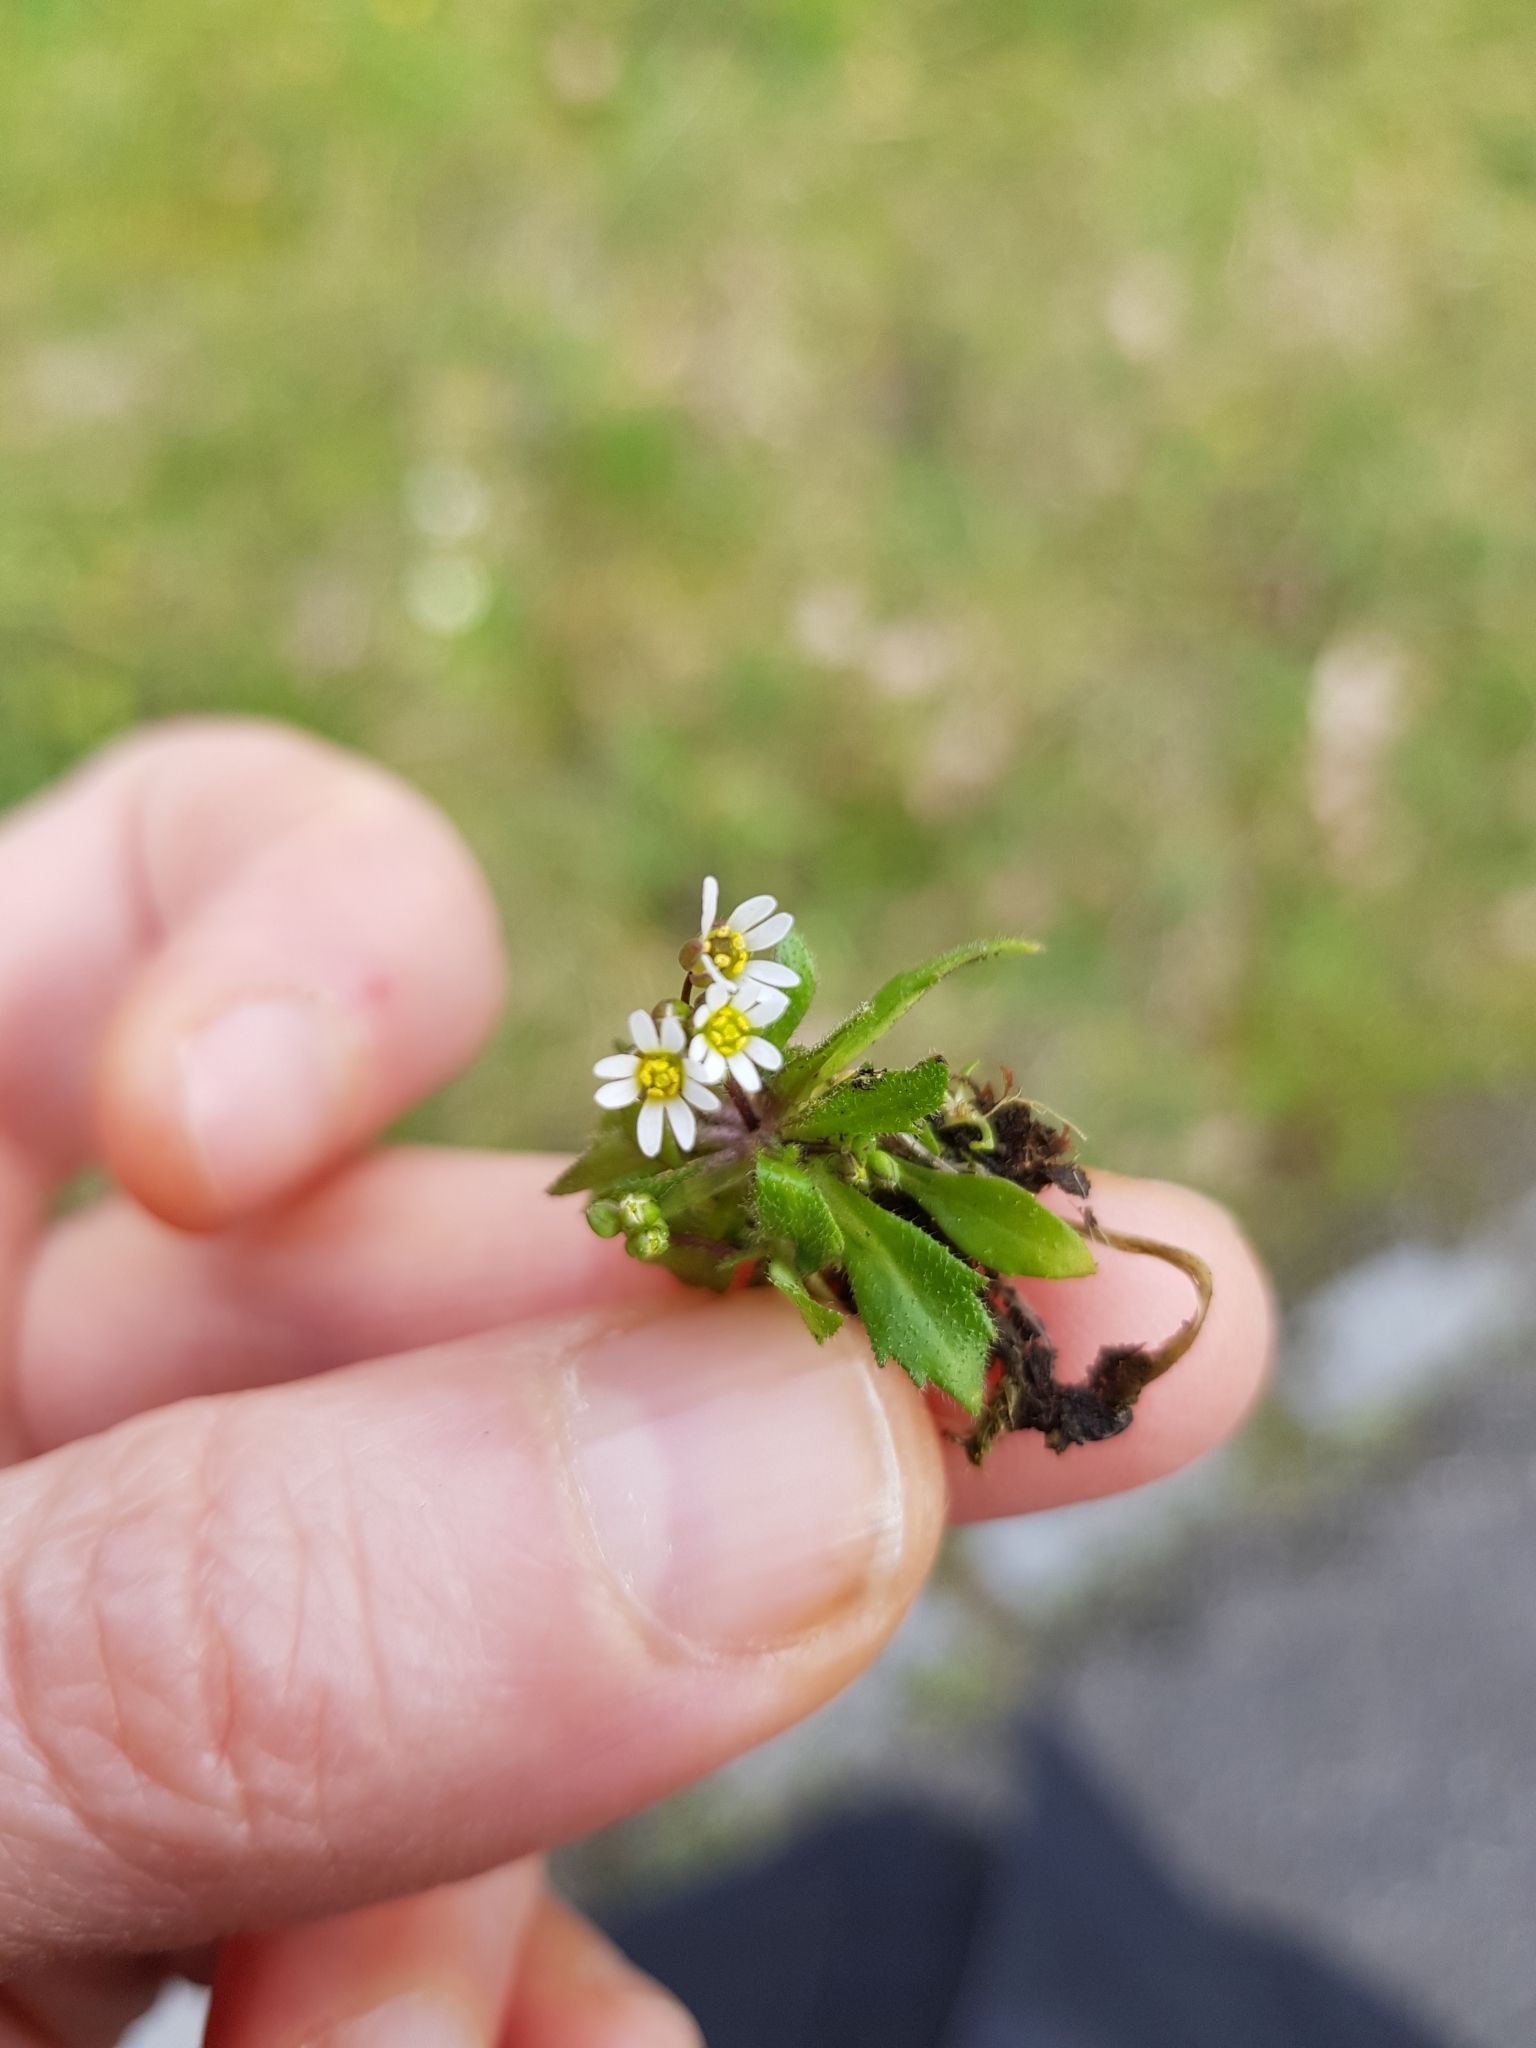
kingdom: Plantae
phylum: Tracheophyta
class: Magnoliopsida
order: Brassicales
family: Brassicaceae
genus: Draba
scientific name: Draba verna
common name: Spring draba
